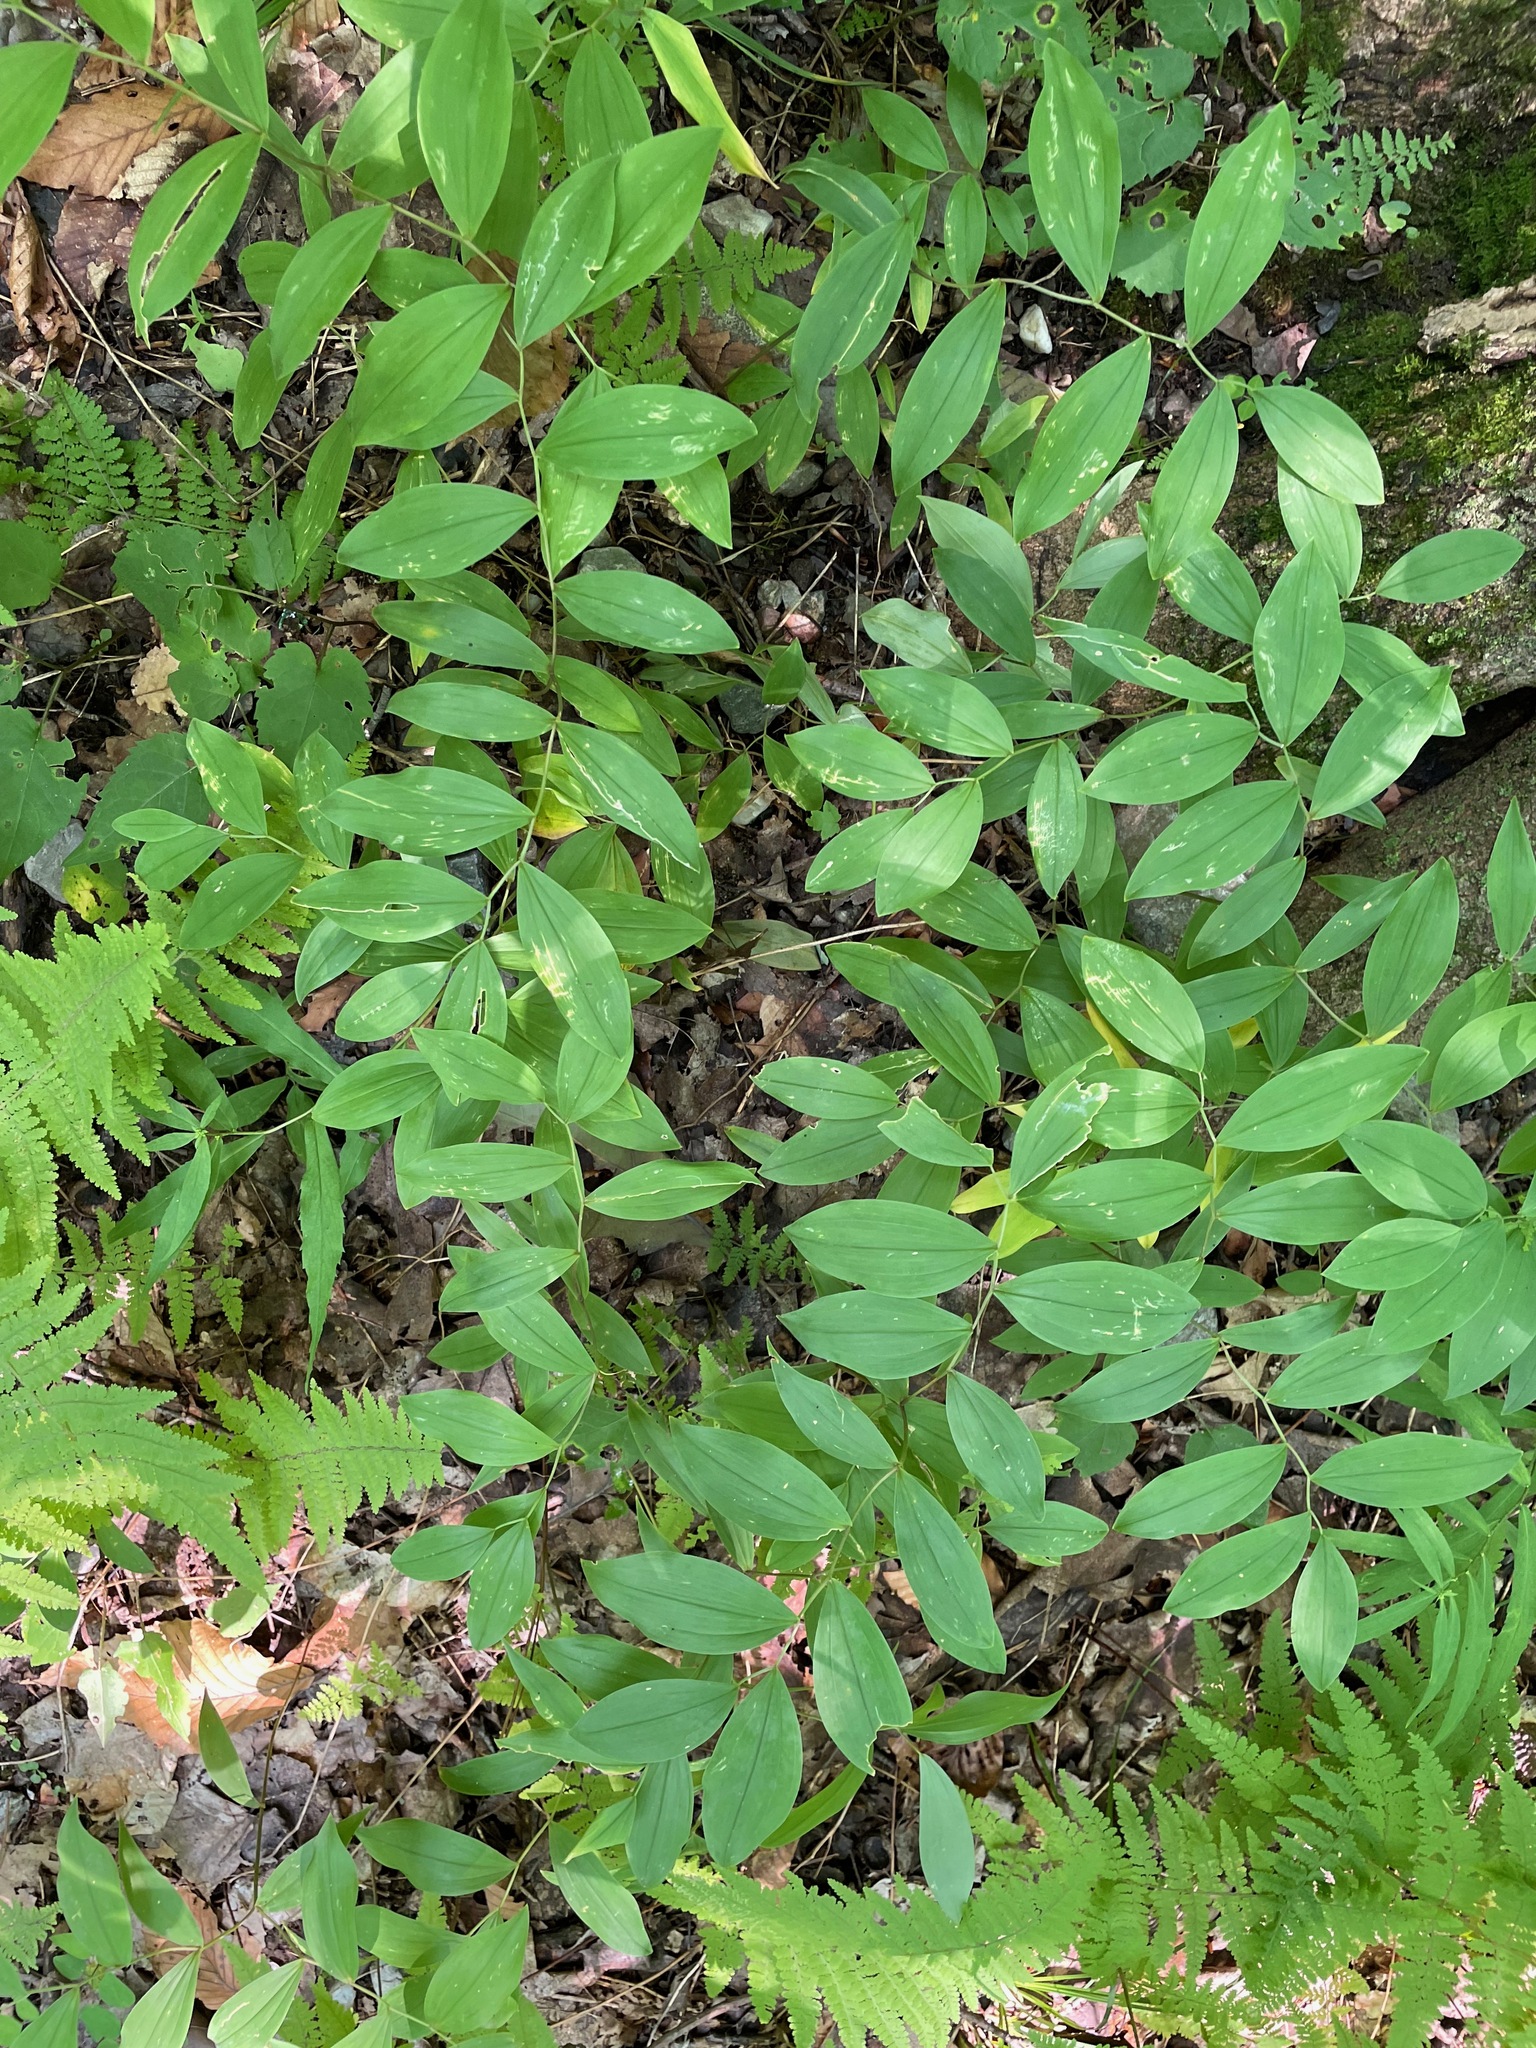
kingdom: Plantae
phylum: Tracheophyta
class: Liliopsida
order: Liliales
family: Colchicaceae
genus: Uvularia
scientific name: Uvularia sessilifolia
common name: Straw-lily
